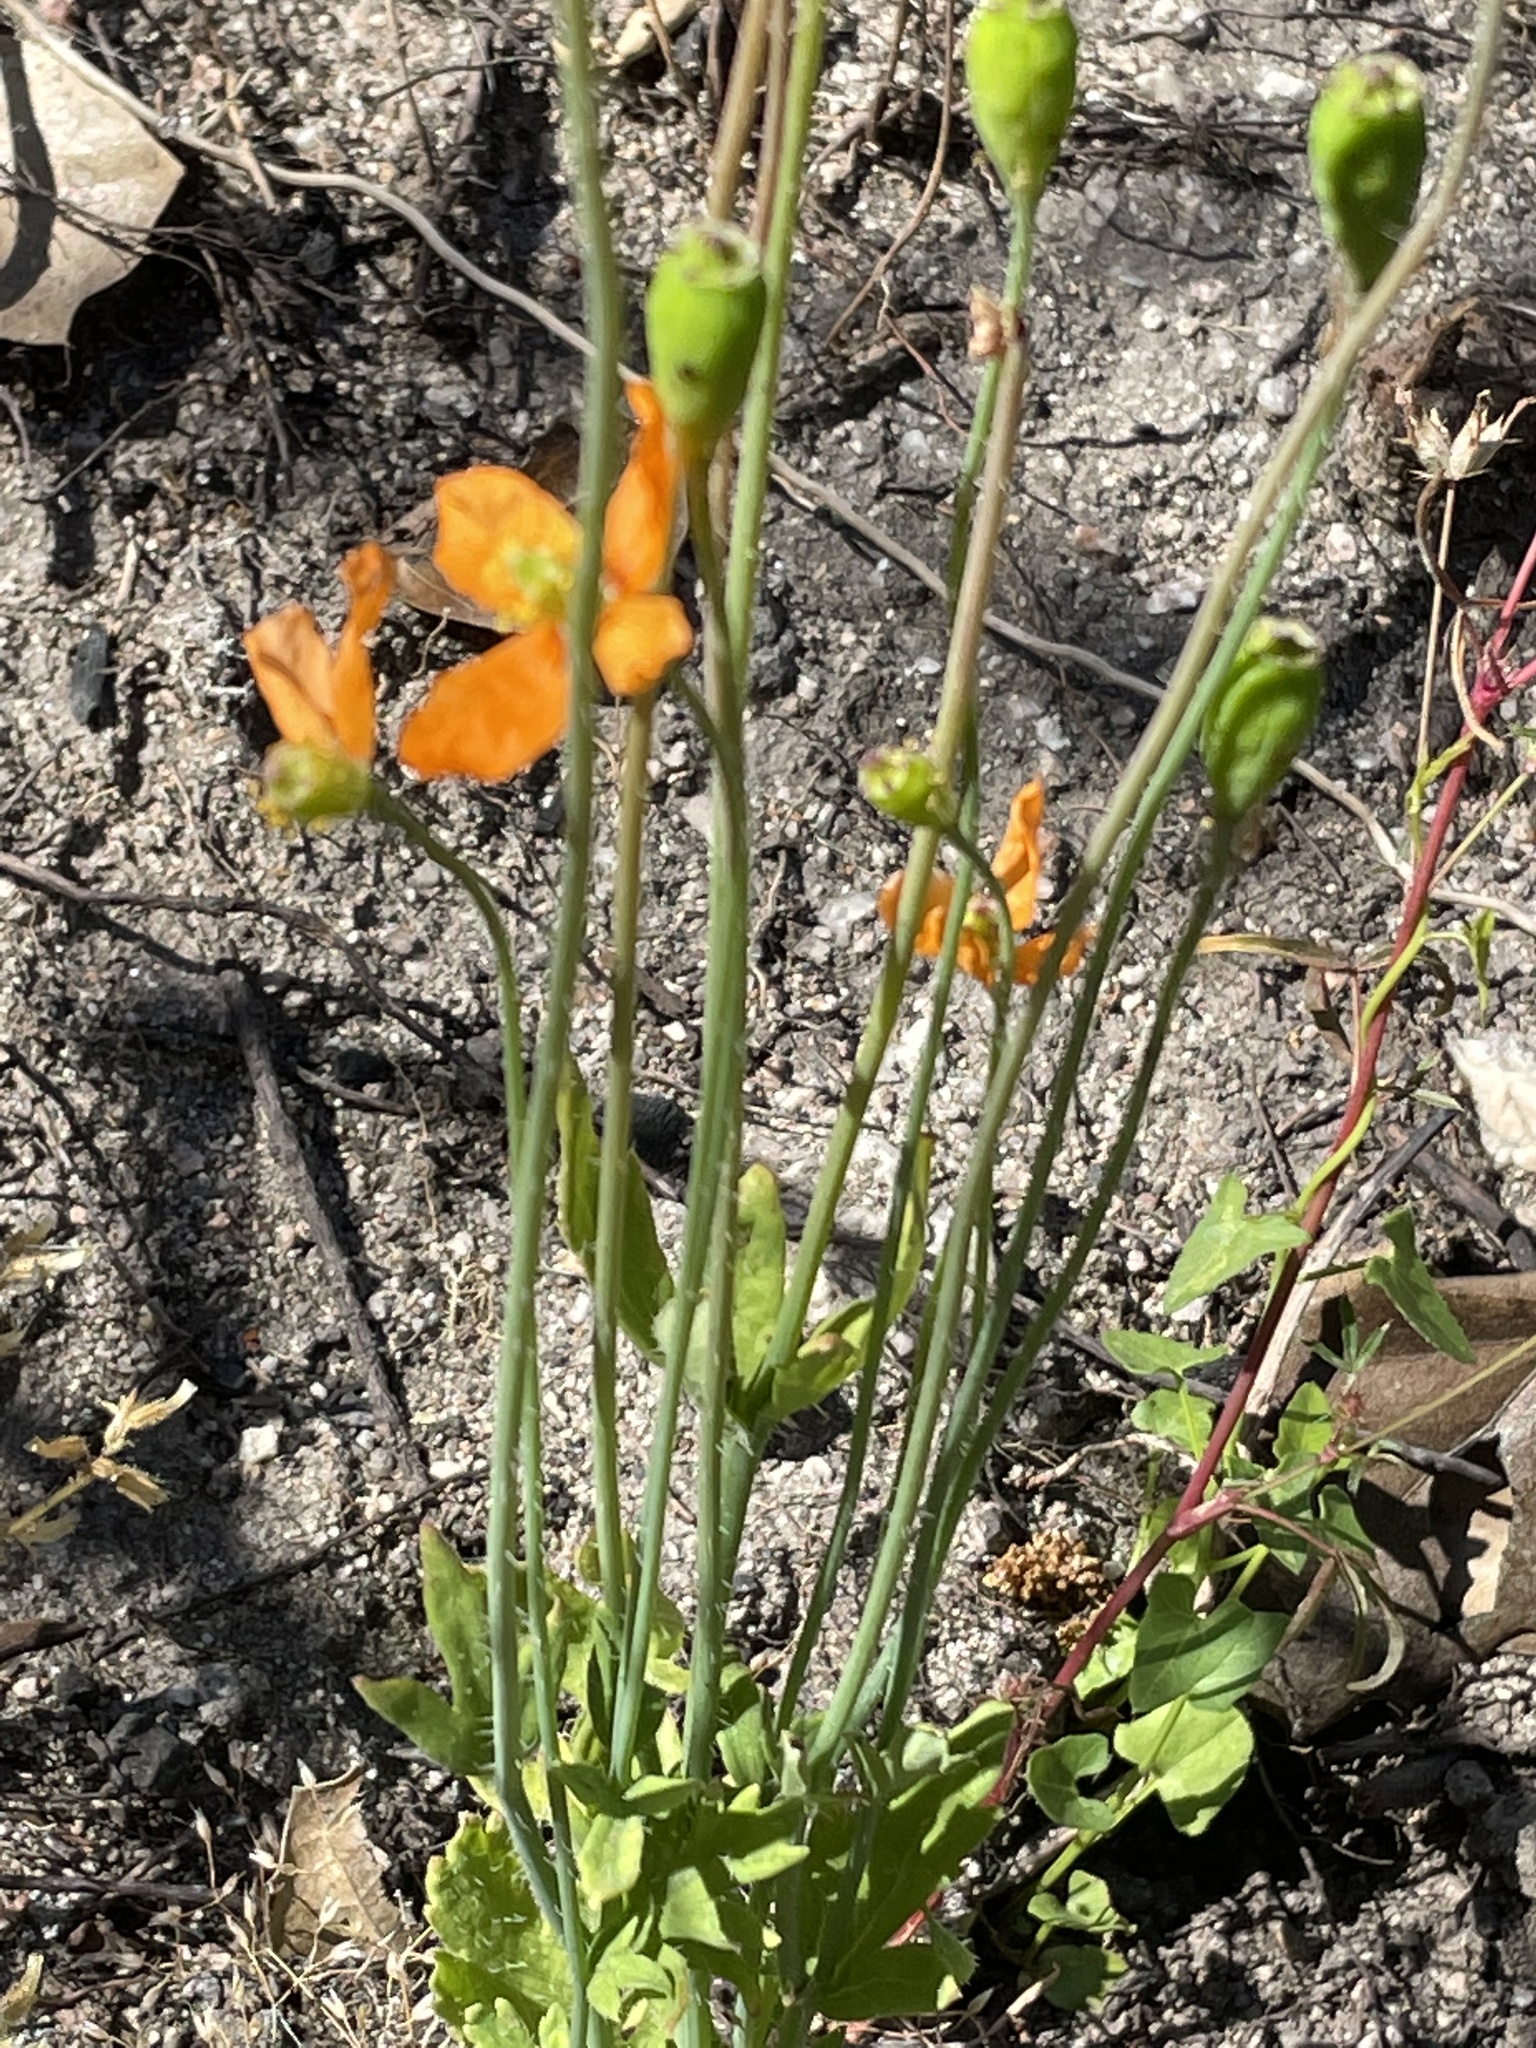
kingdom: Plantae
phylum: Tracheophyta
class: Magnoliopsida
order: Ranunculales
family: Papaveraceae
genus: Papaver
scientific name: Papaver californicum
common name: Fire poppy
